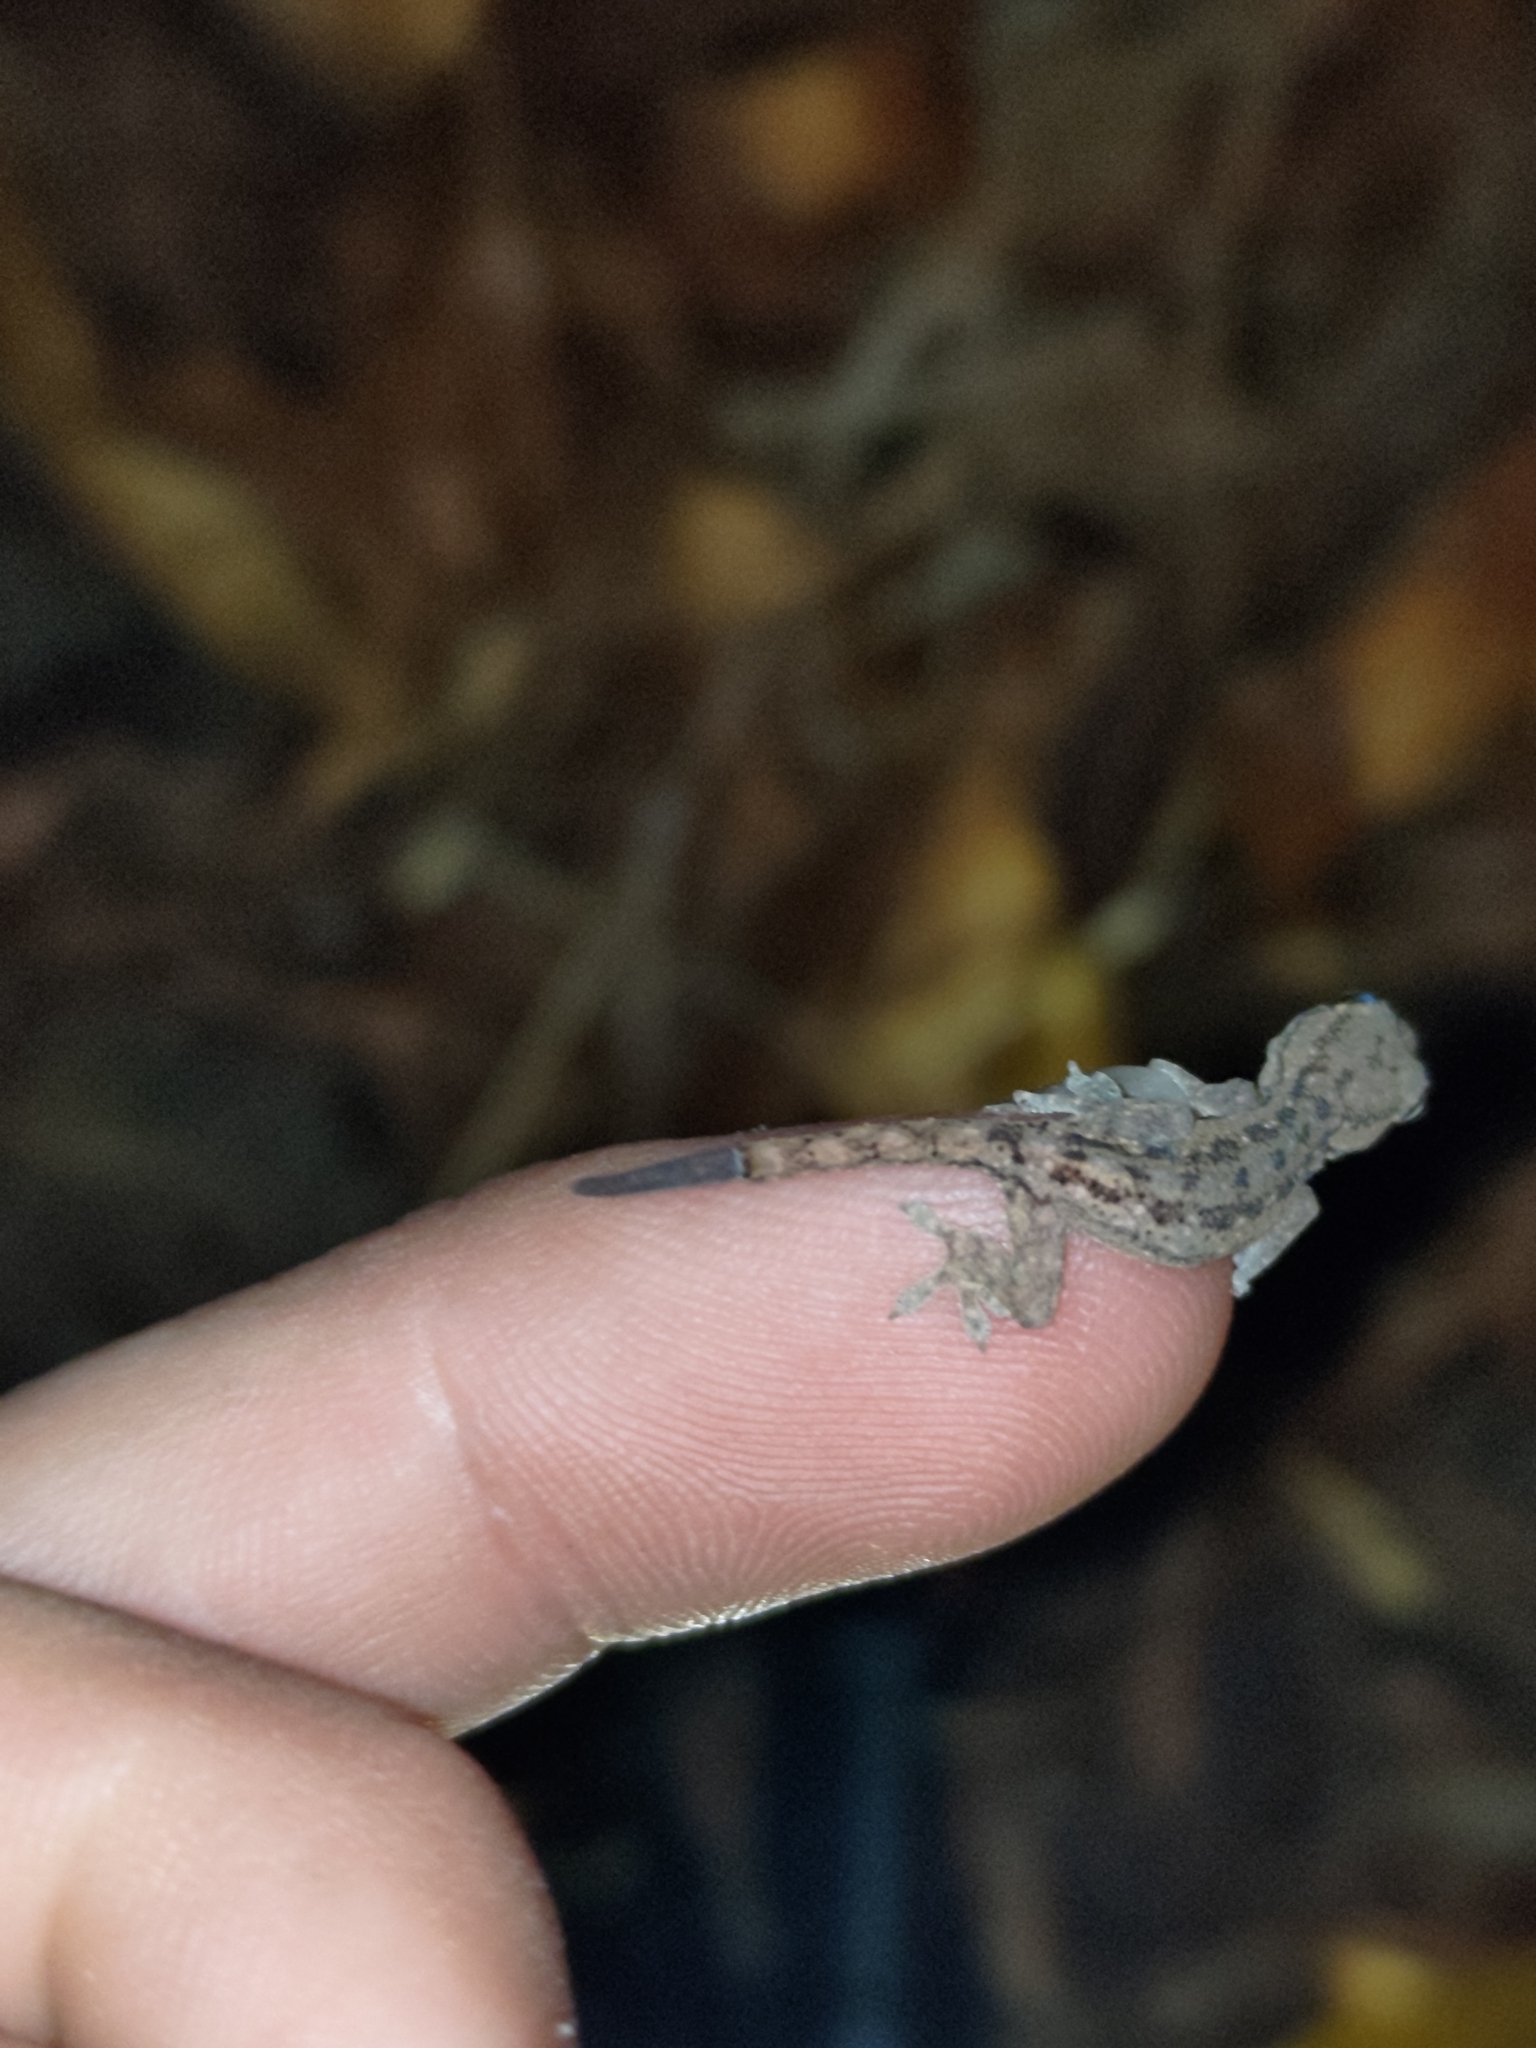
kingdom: Animalia
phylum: Chordata
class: Squamata
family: Gekkonidae
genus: Hemidactylus
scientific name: Hemidactylus frenatus
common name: Common house gecko
